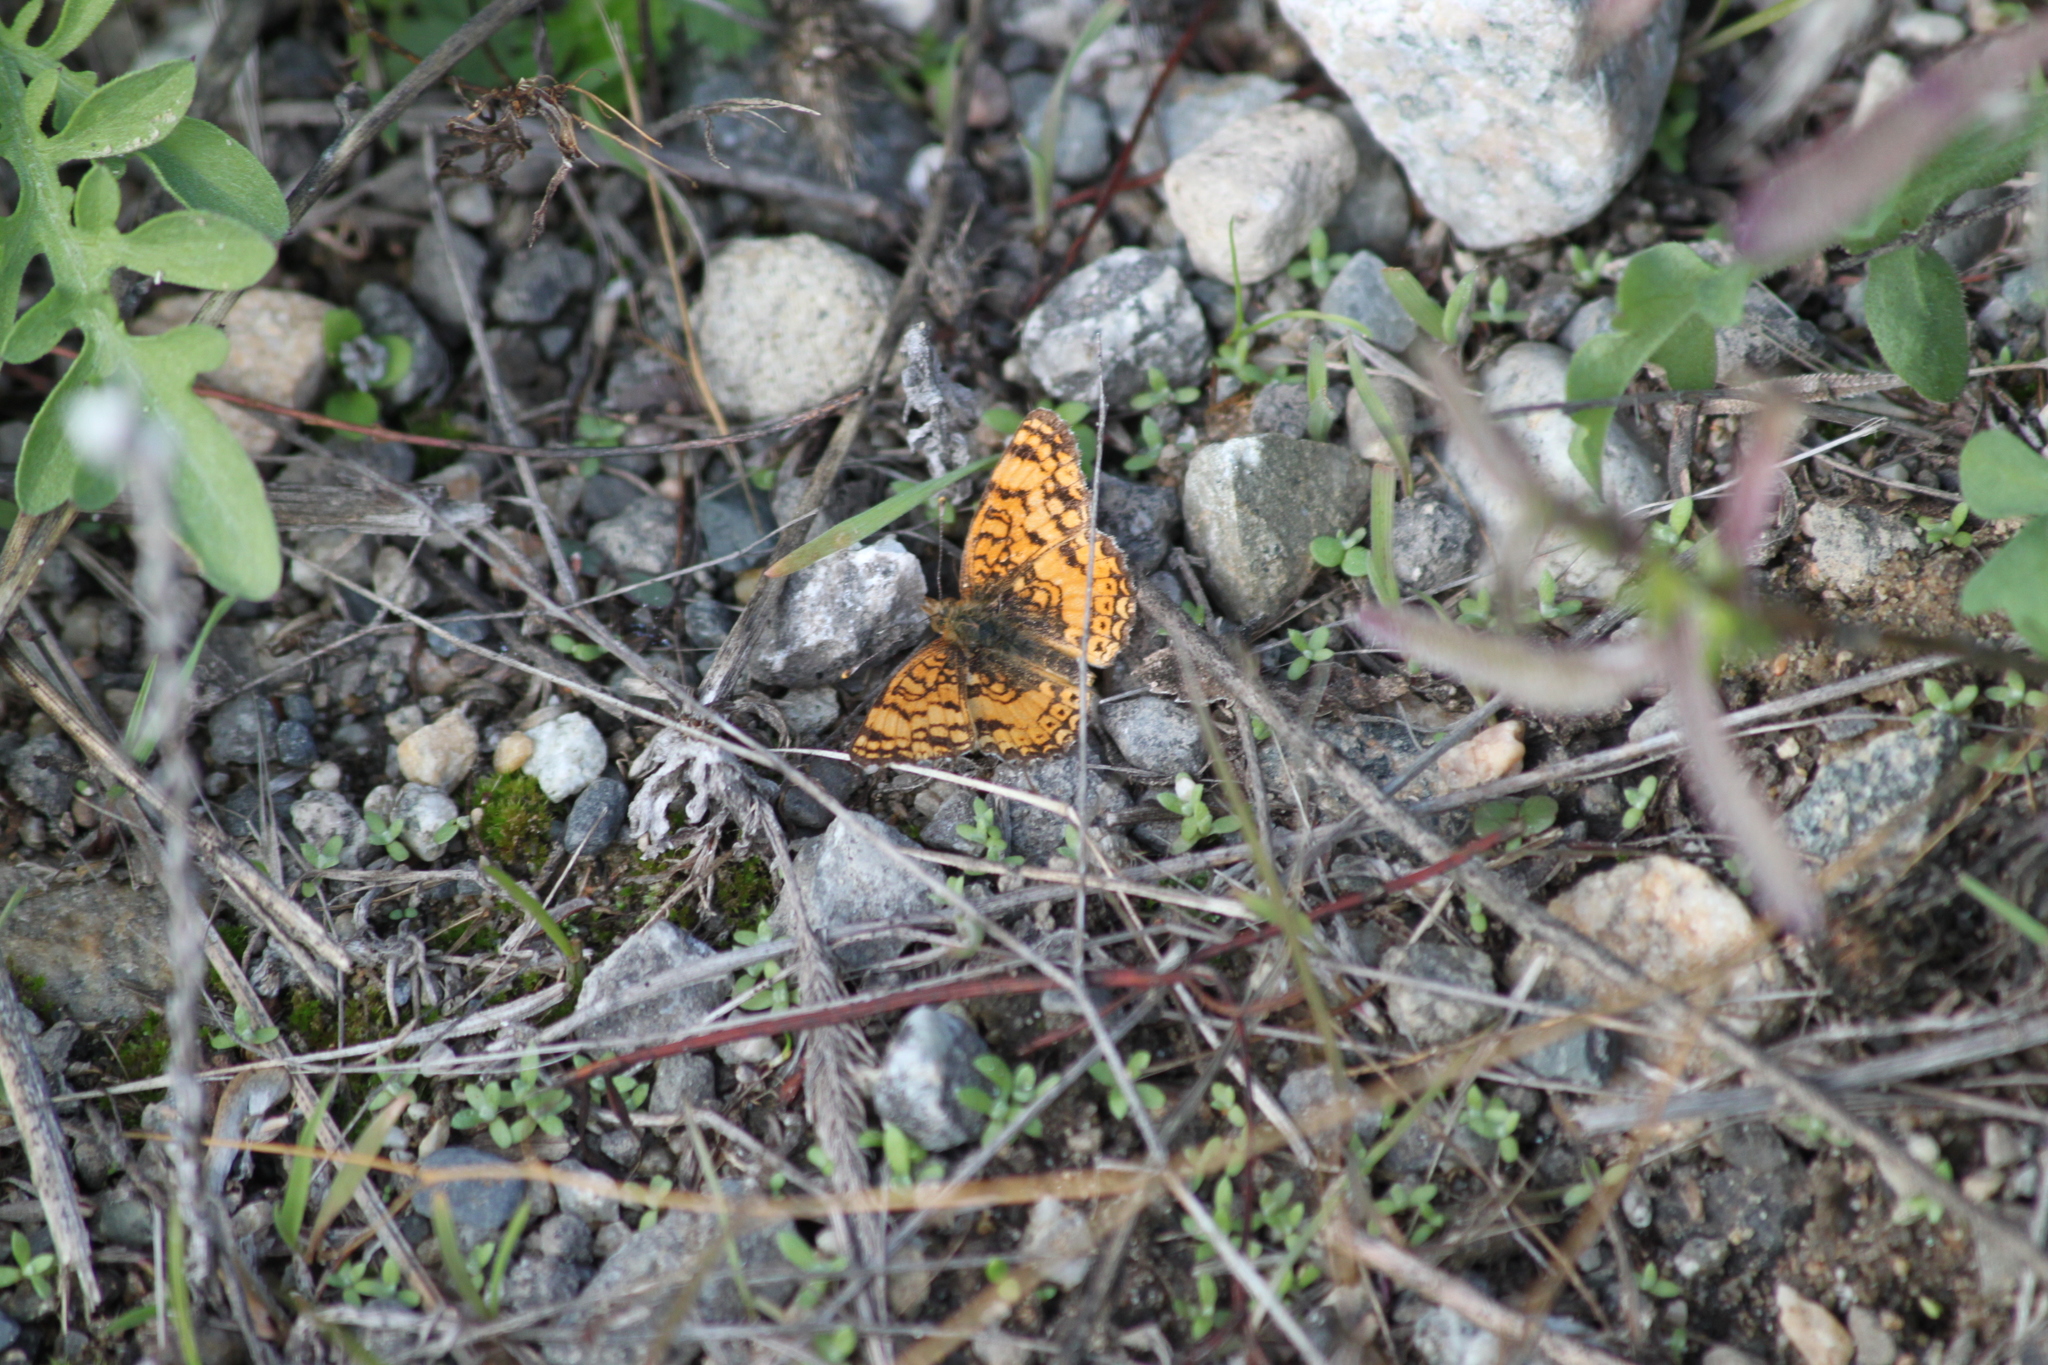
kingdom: Animalia
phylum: Arthropoda
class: Insecta
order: Lepidoptera
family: Nymphalidae
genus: Eresia
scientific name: Eresia aveyrona
